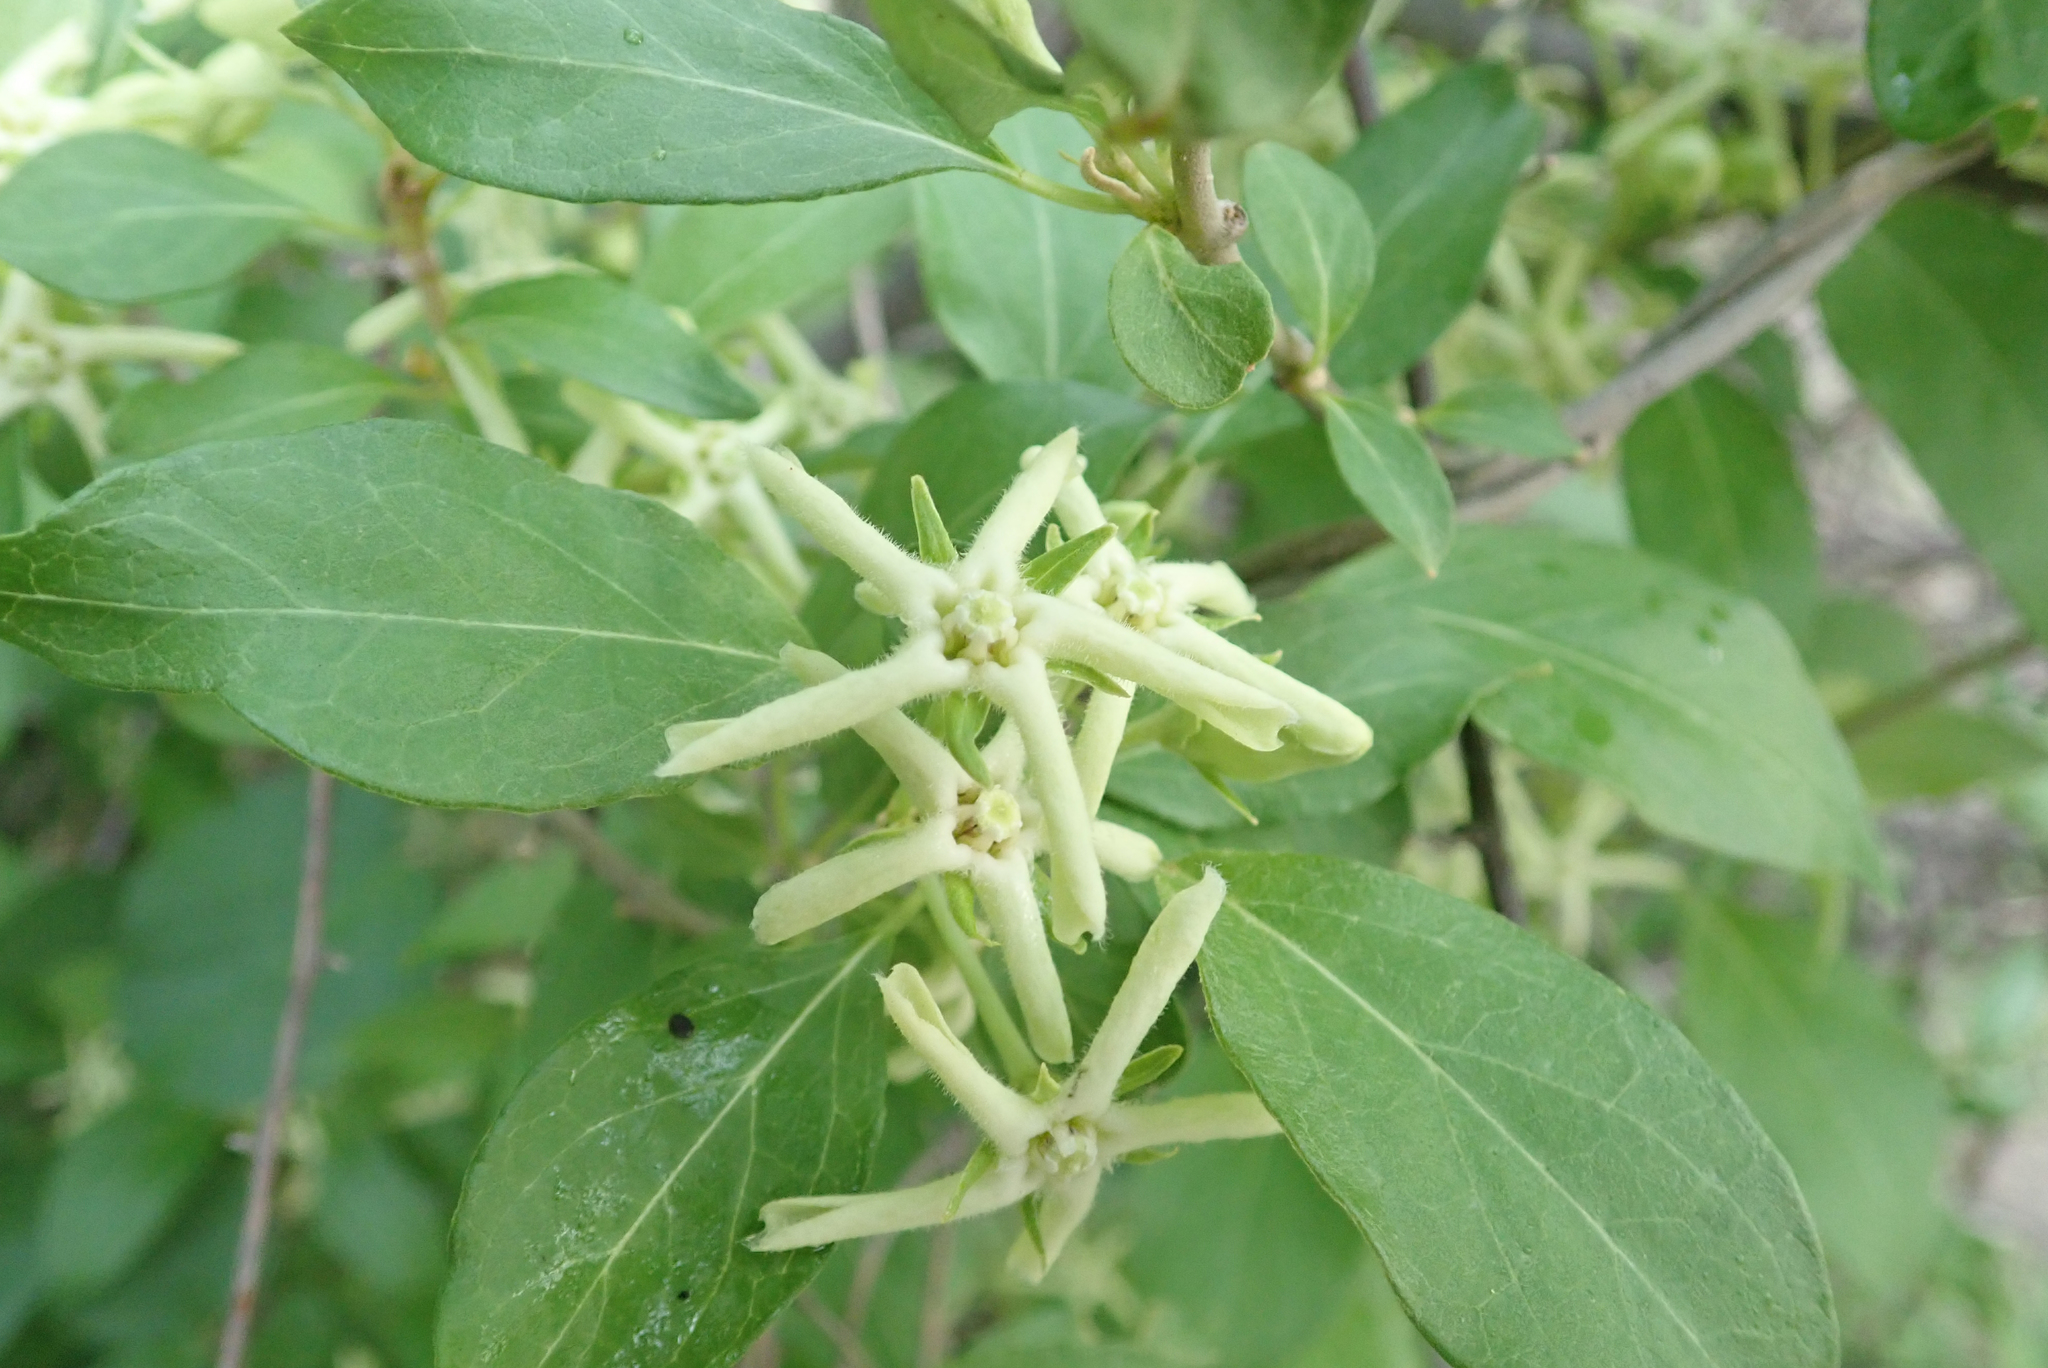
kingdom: Plantae
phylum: Tracheophyta
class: Magnoliopsida
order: Gentianales
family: Apocynaceae
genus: Stephanotis
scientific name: Stephanotis macrantha
